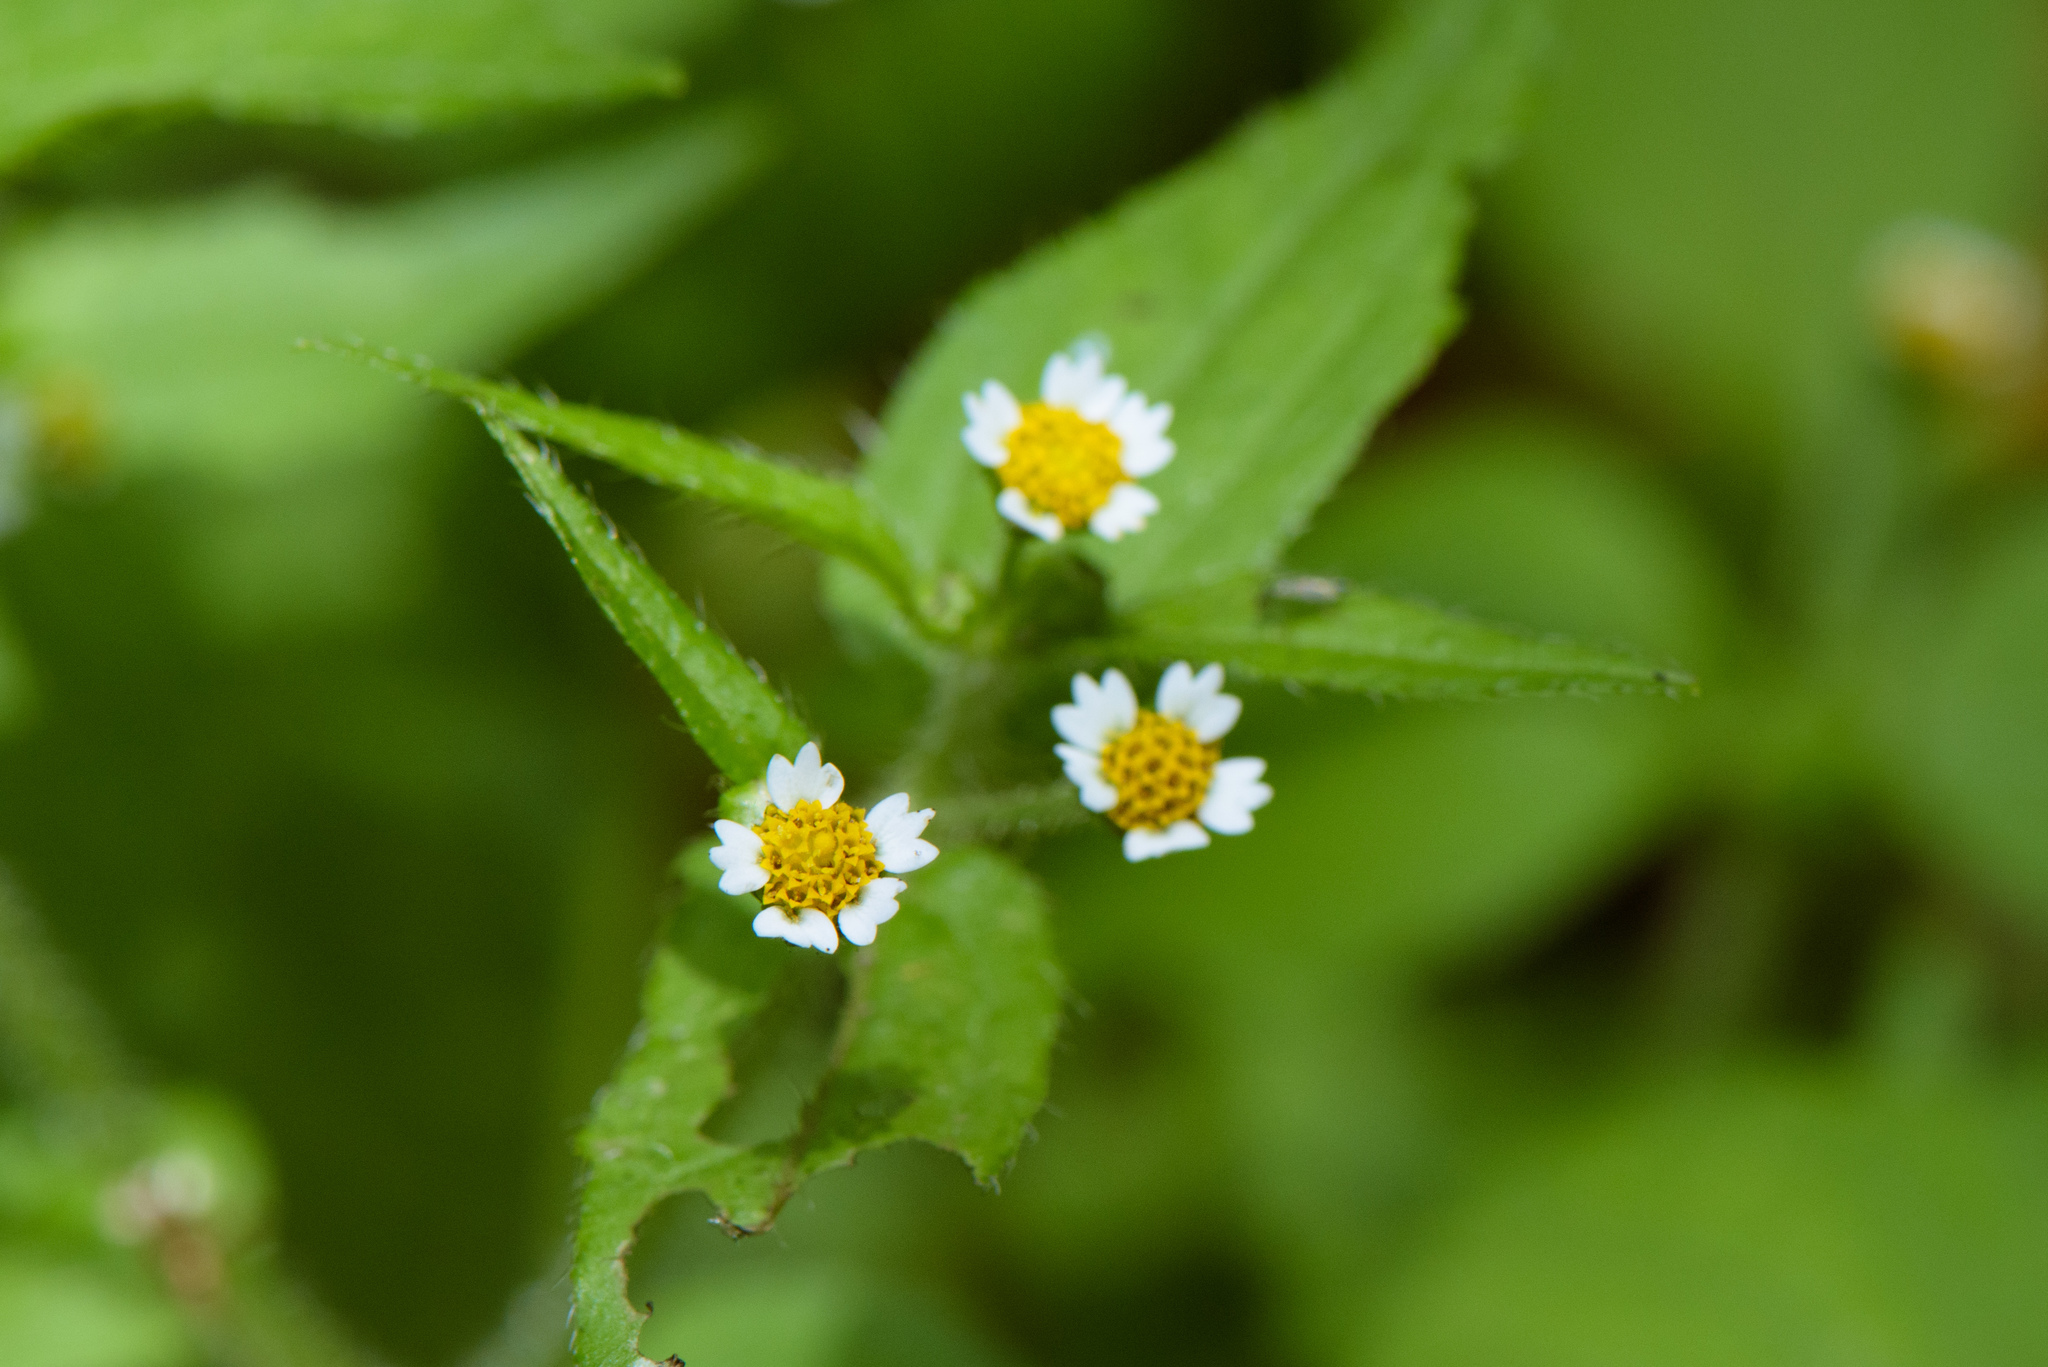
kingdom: Plantae
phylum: Tracheophyta
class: Magnoliopsida
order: Asterales
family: Asteraceae
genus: Galinsoga
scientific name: Galinsoga quadriradiata
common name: Shaggy soldier
